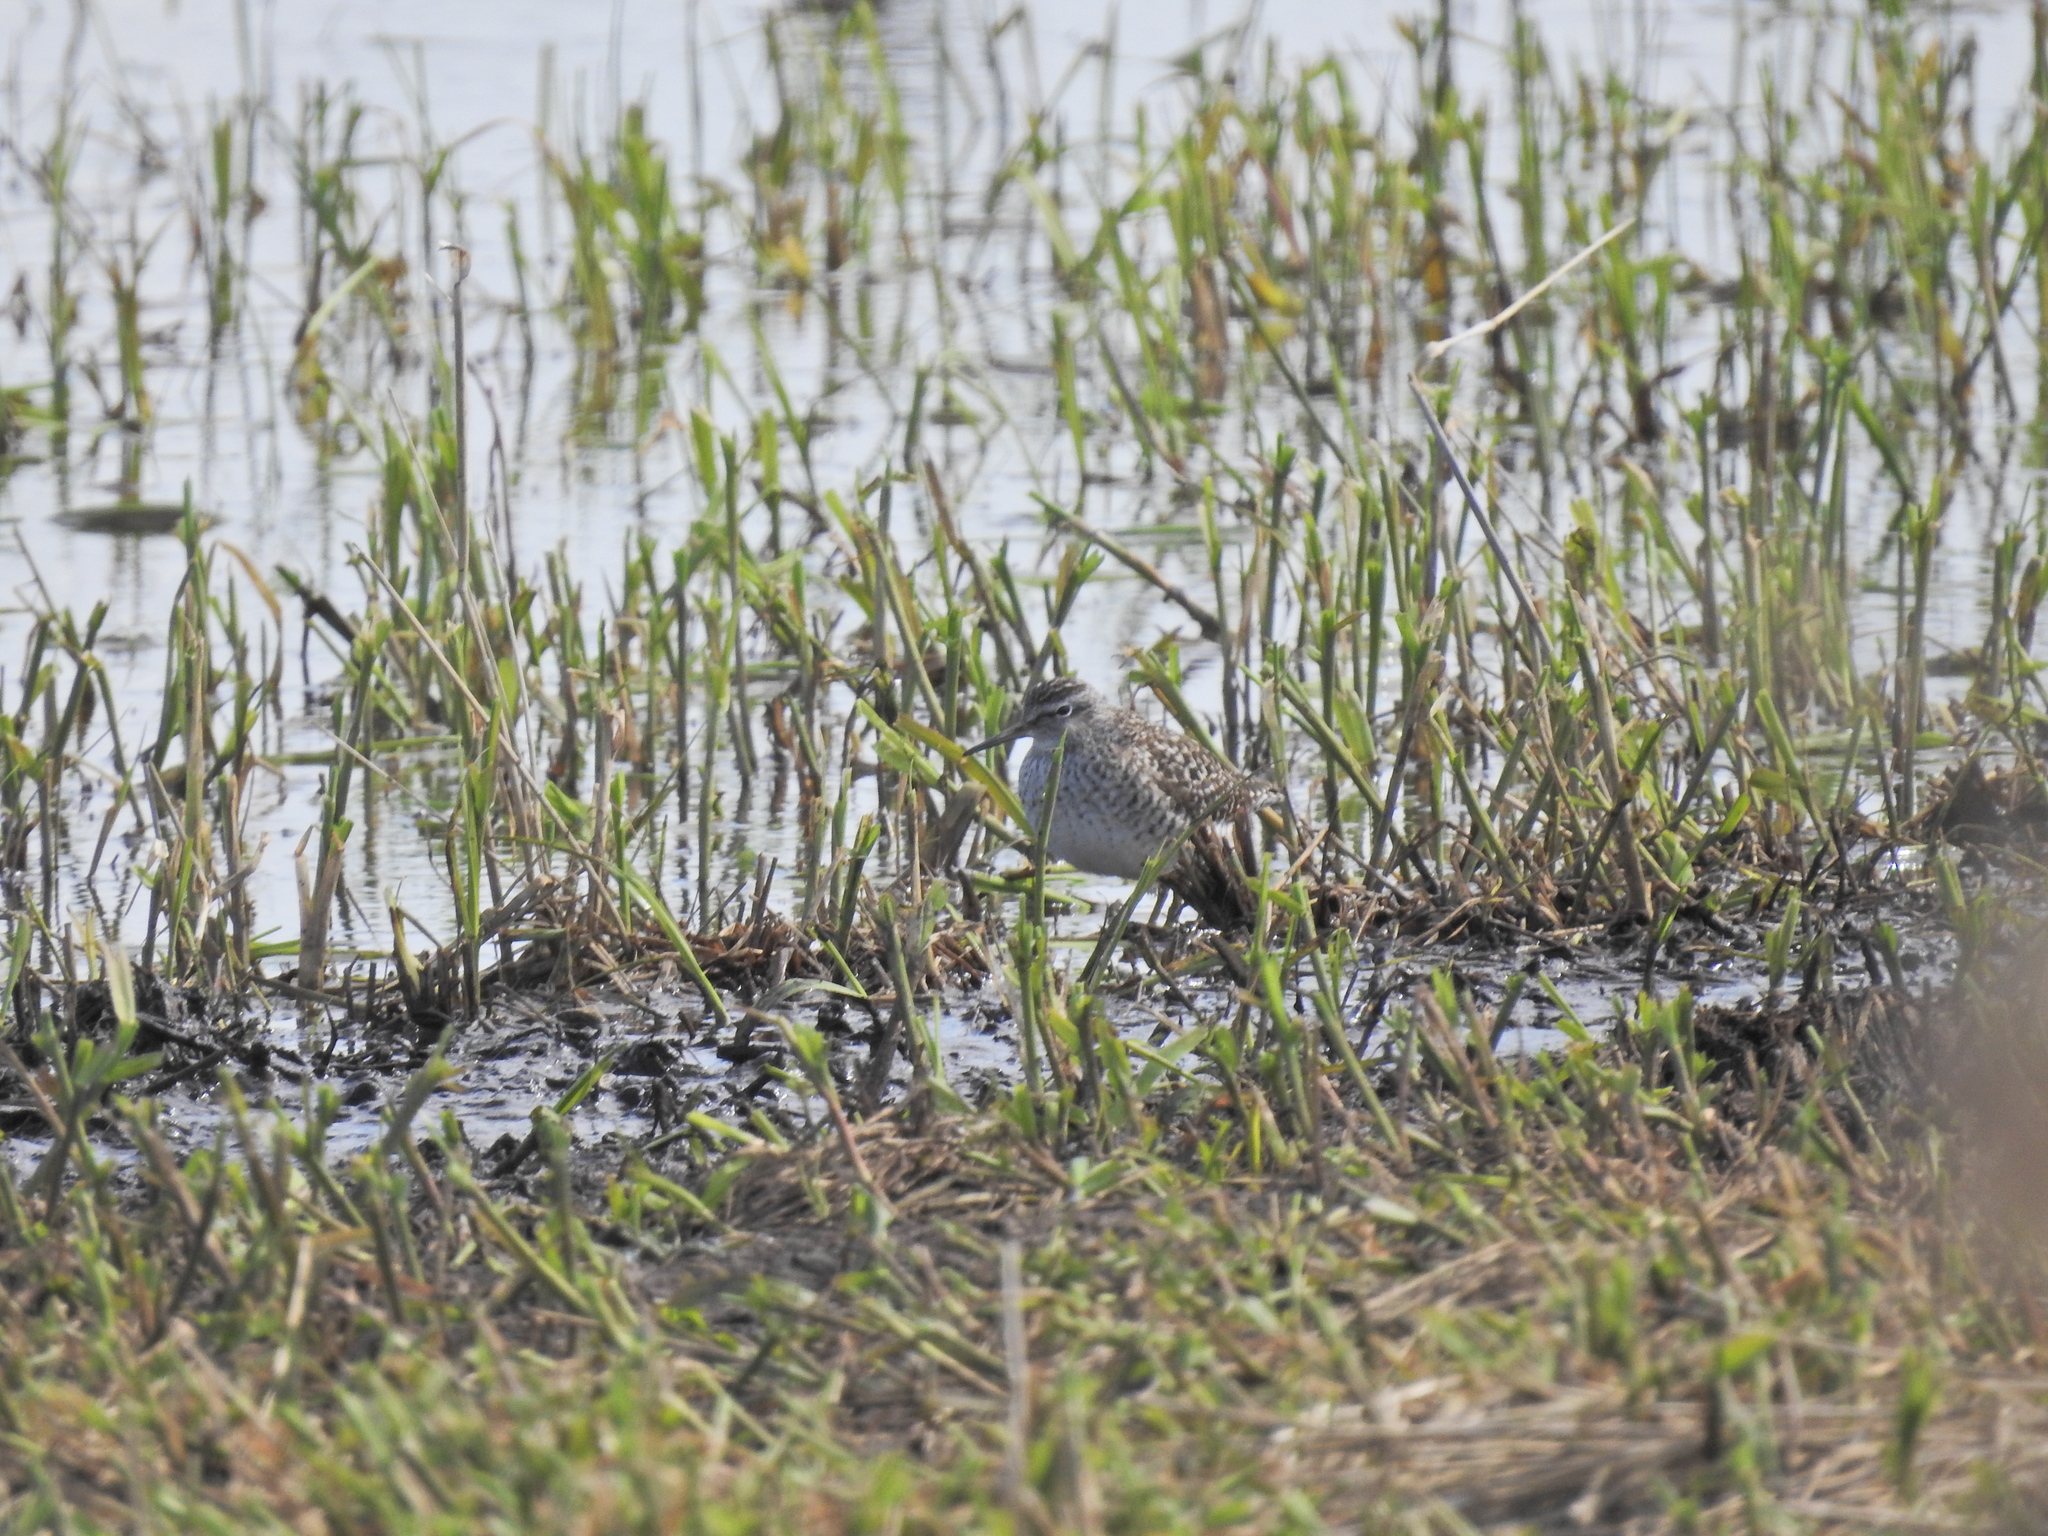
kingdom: Animalia
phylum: Chordata
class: Aves
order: Charadriiformes
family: Scolopacidae
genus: Tringa
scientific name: Tringa glareola
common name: Wood sandpiper
